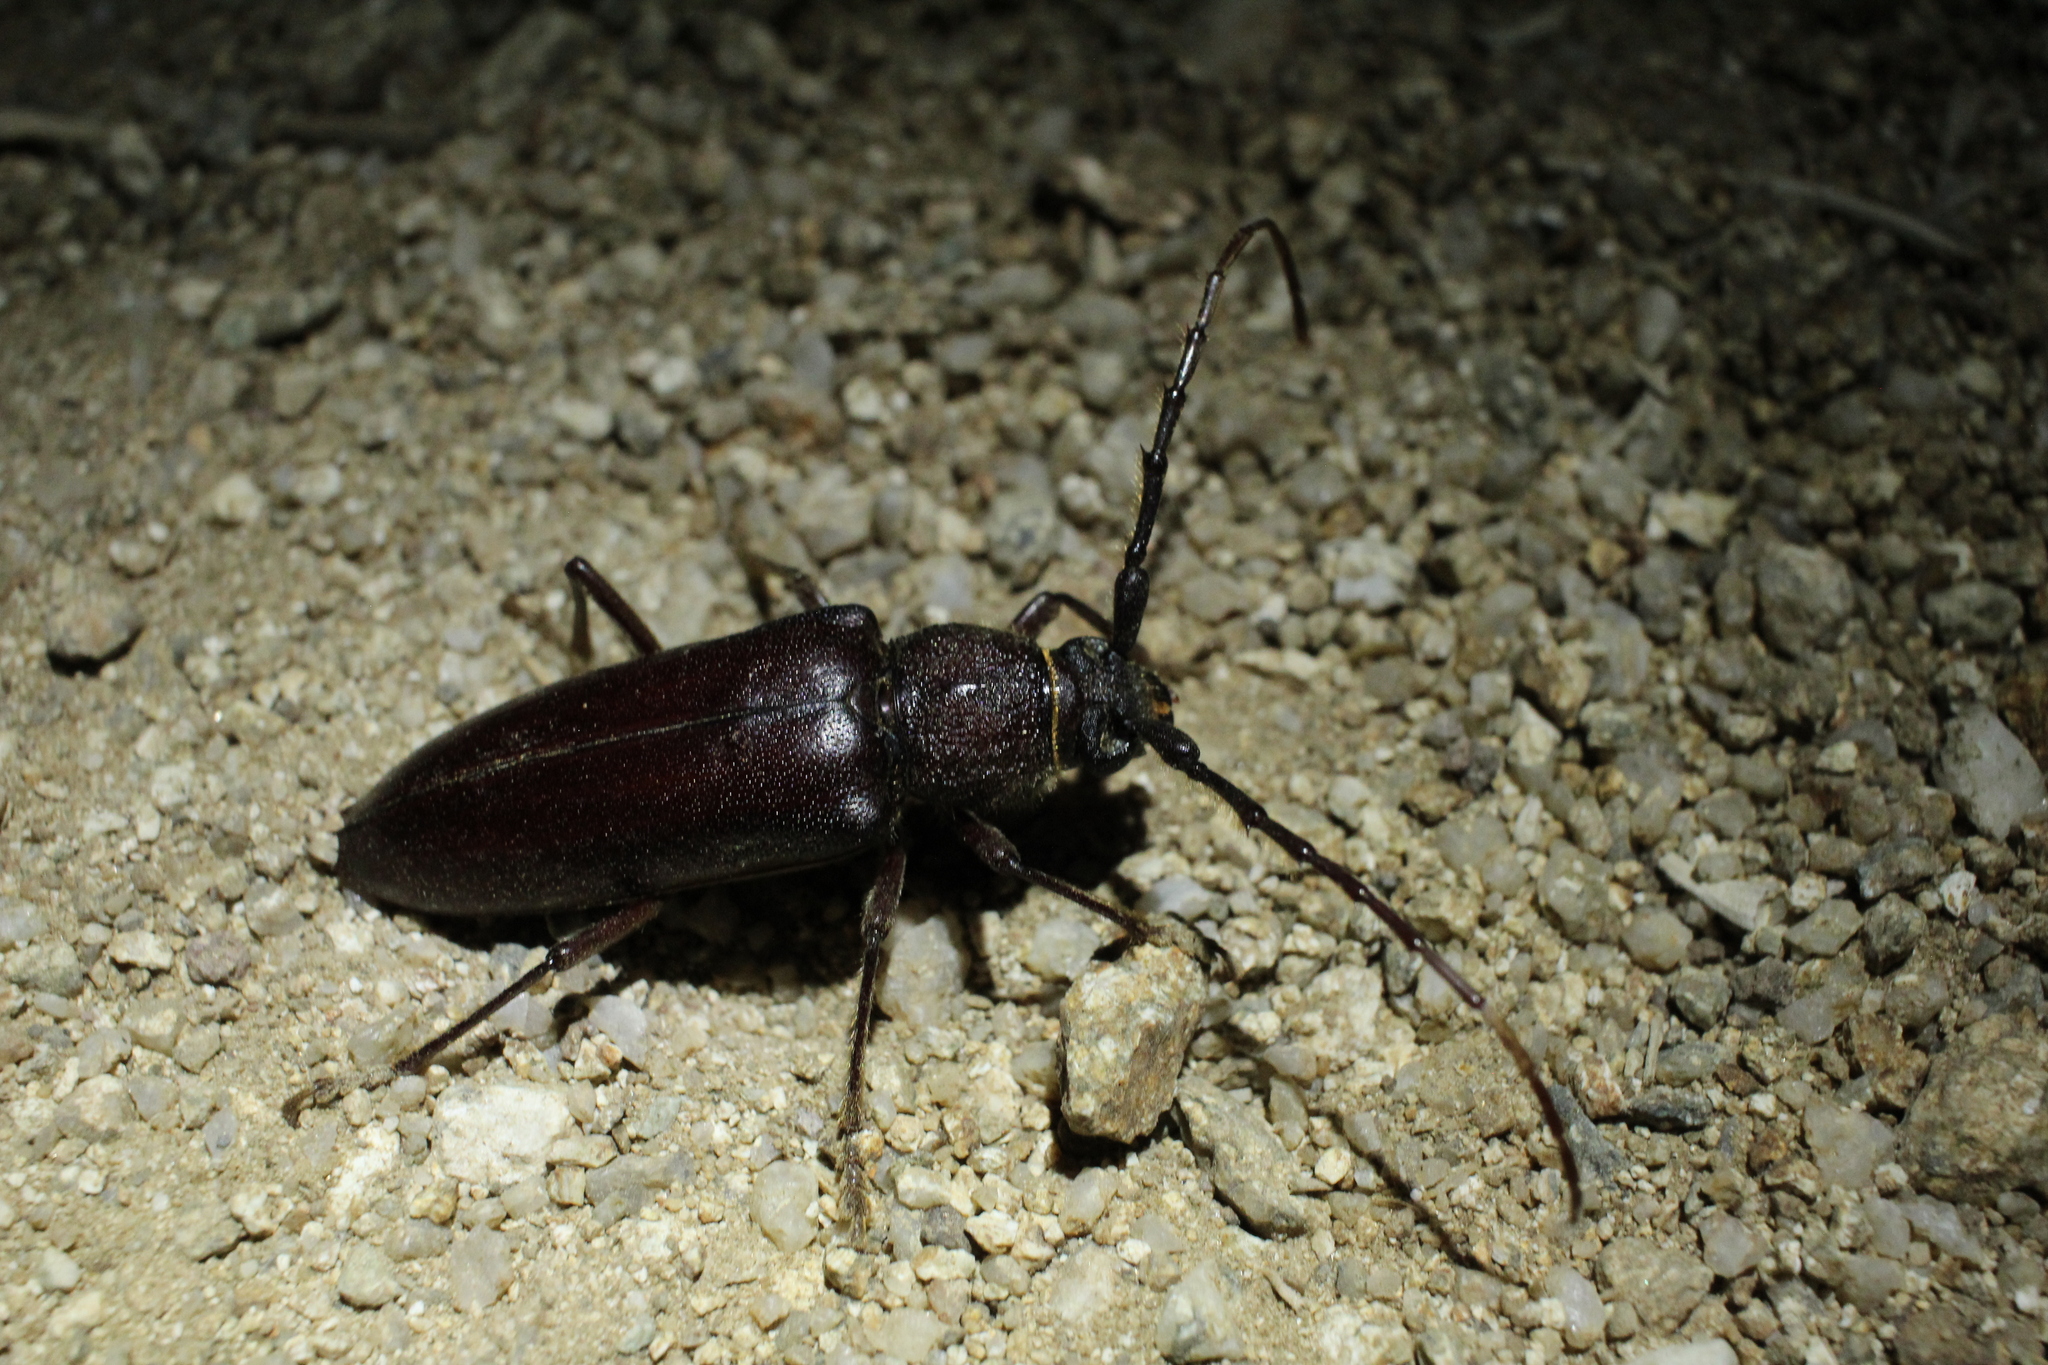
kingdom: Animalia
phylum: Arthropoda
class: Insecta
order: Coleoptera
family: Cerambycidae
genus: Enaphalodes
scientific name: Enaphalodes hispicornis
